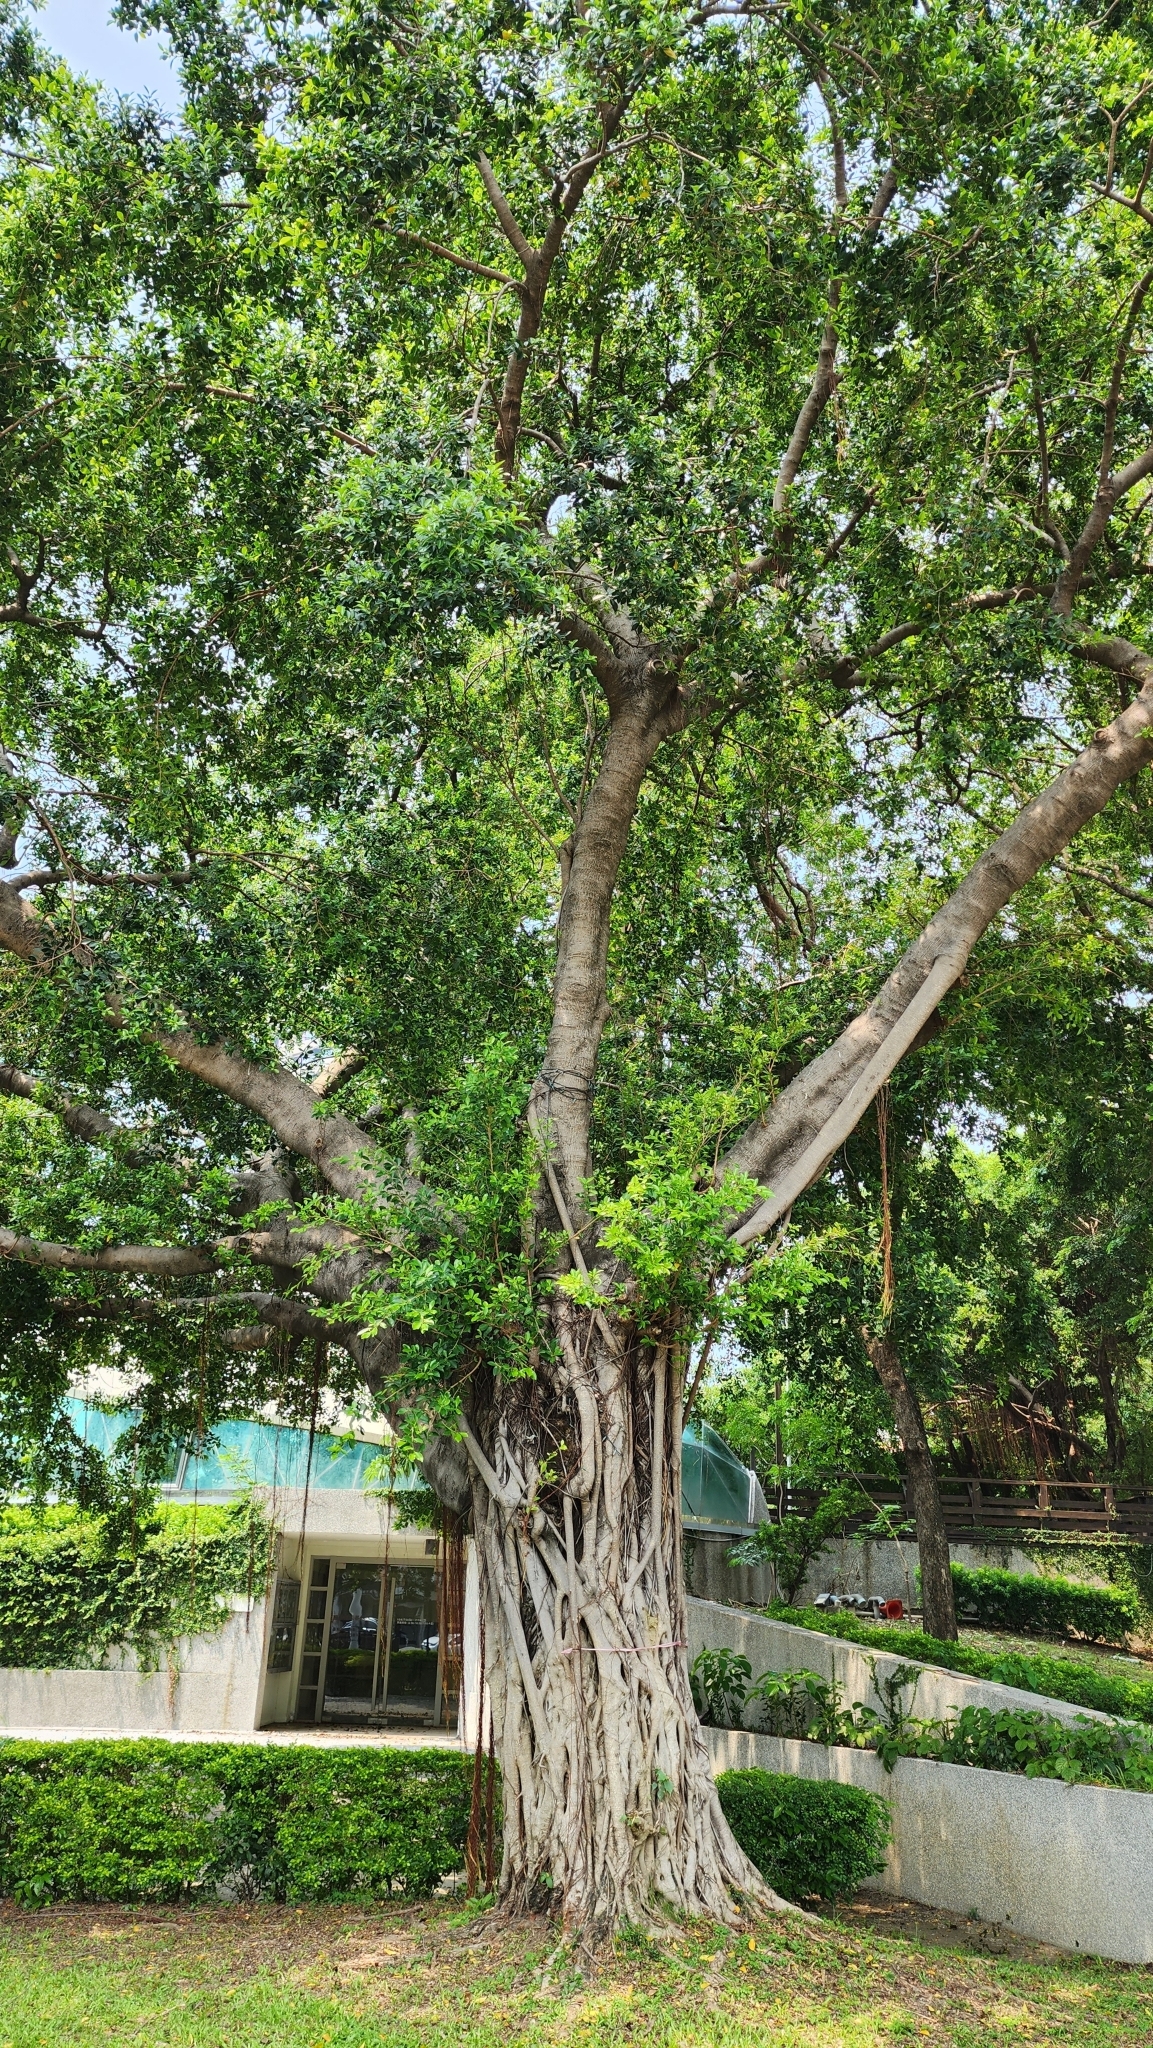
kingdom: Plantae
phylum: Tracheophyta
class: Magnoliopsida
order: Rosales
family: Moraceae
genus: Ficus
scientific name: Ficus microcarpa
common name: Chinese banyan
